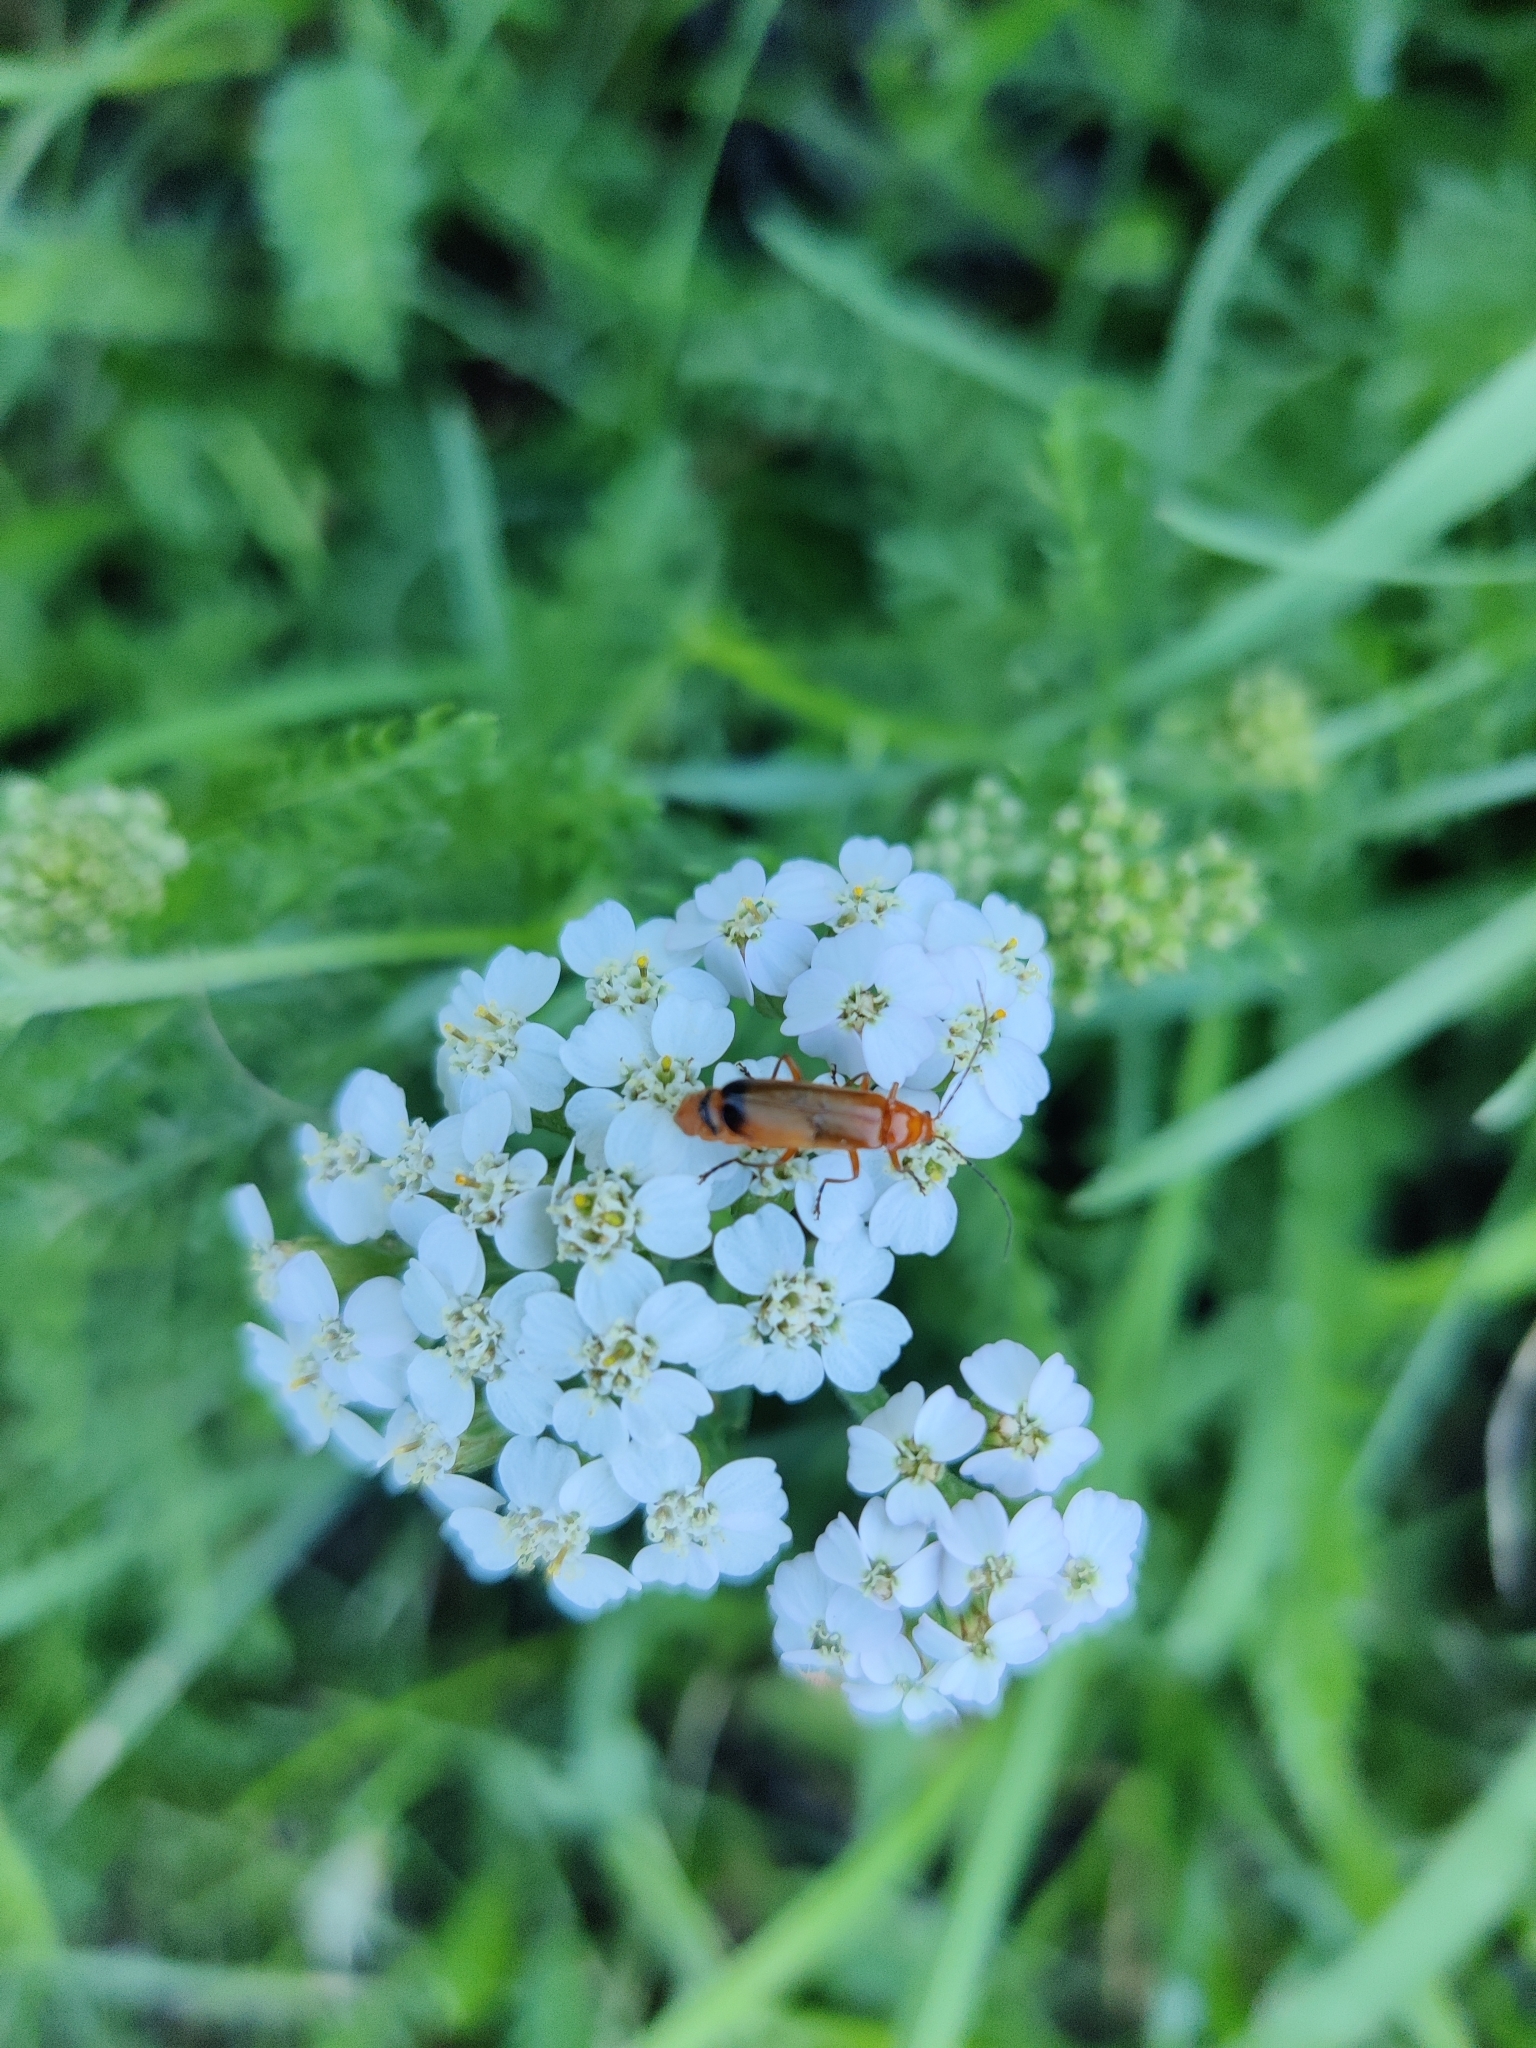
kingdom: Animalia
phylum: Arthropoda
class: Insecta
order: Coleoptera
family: Cantharidae
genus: Rhagonycha
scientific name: Rhagonycha fulva
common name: Common red soldier beetle
